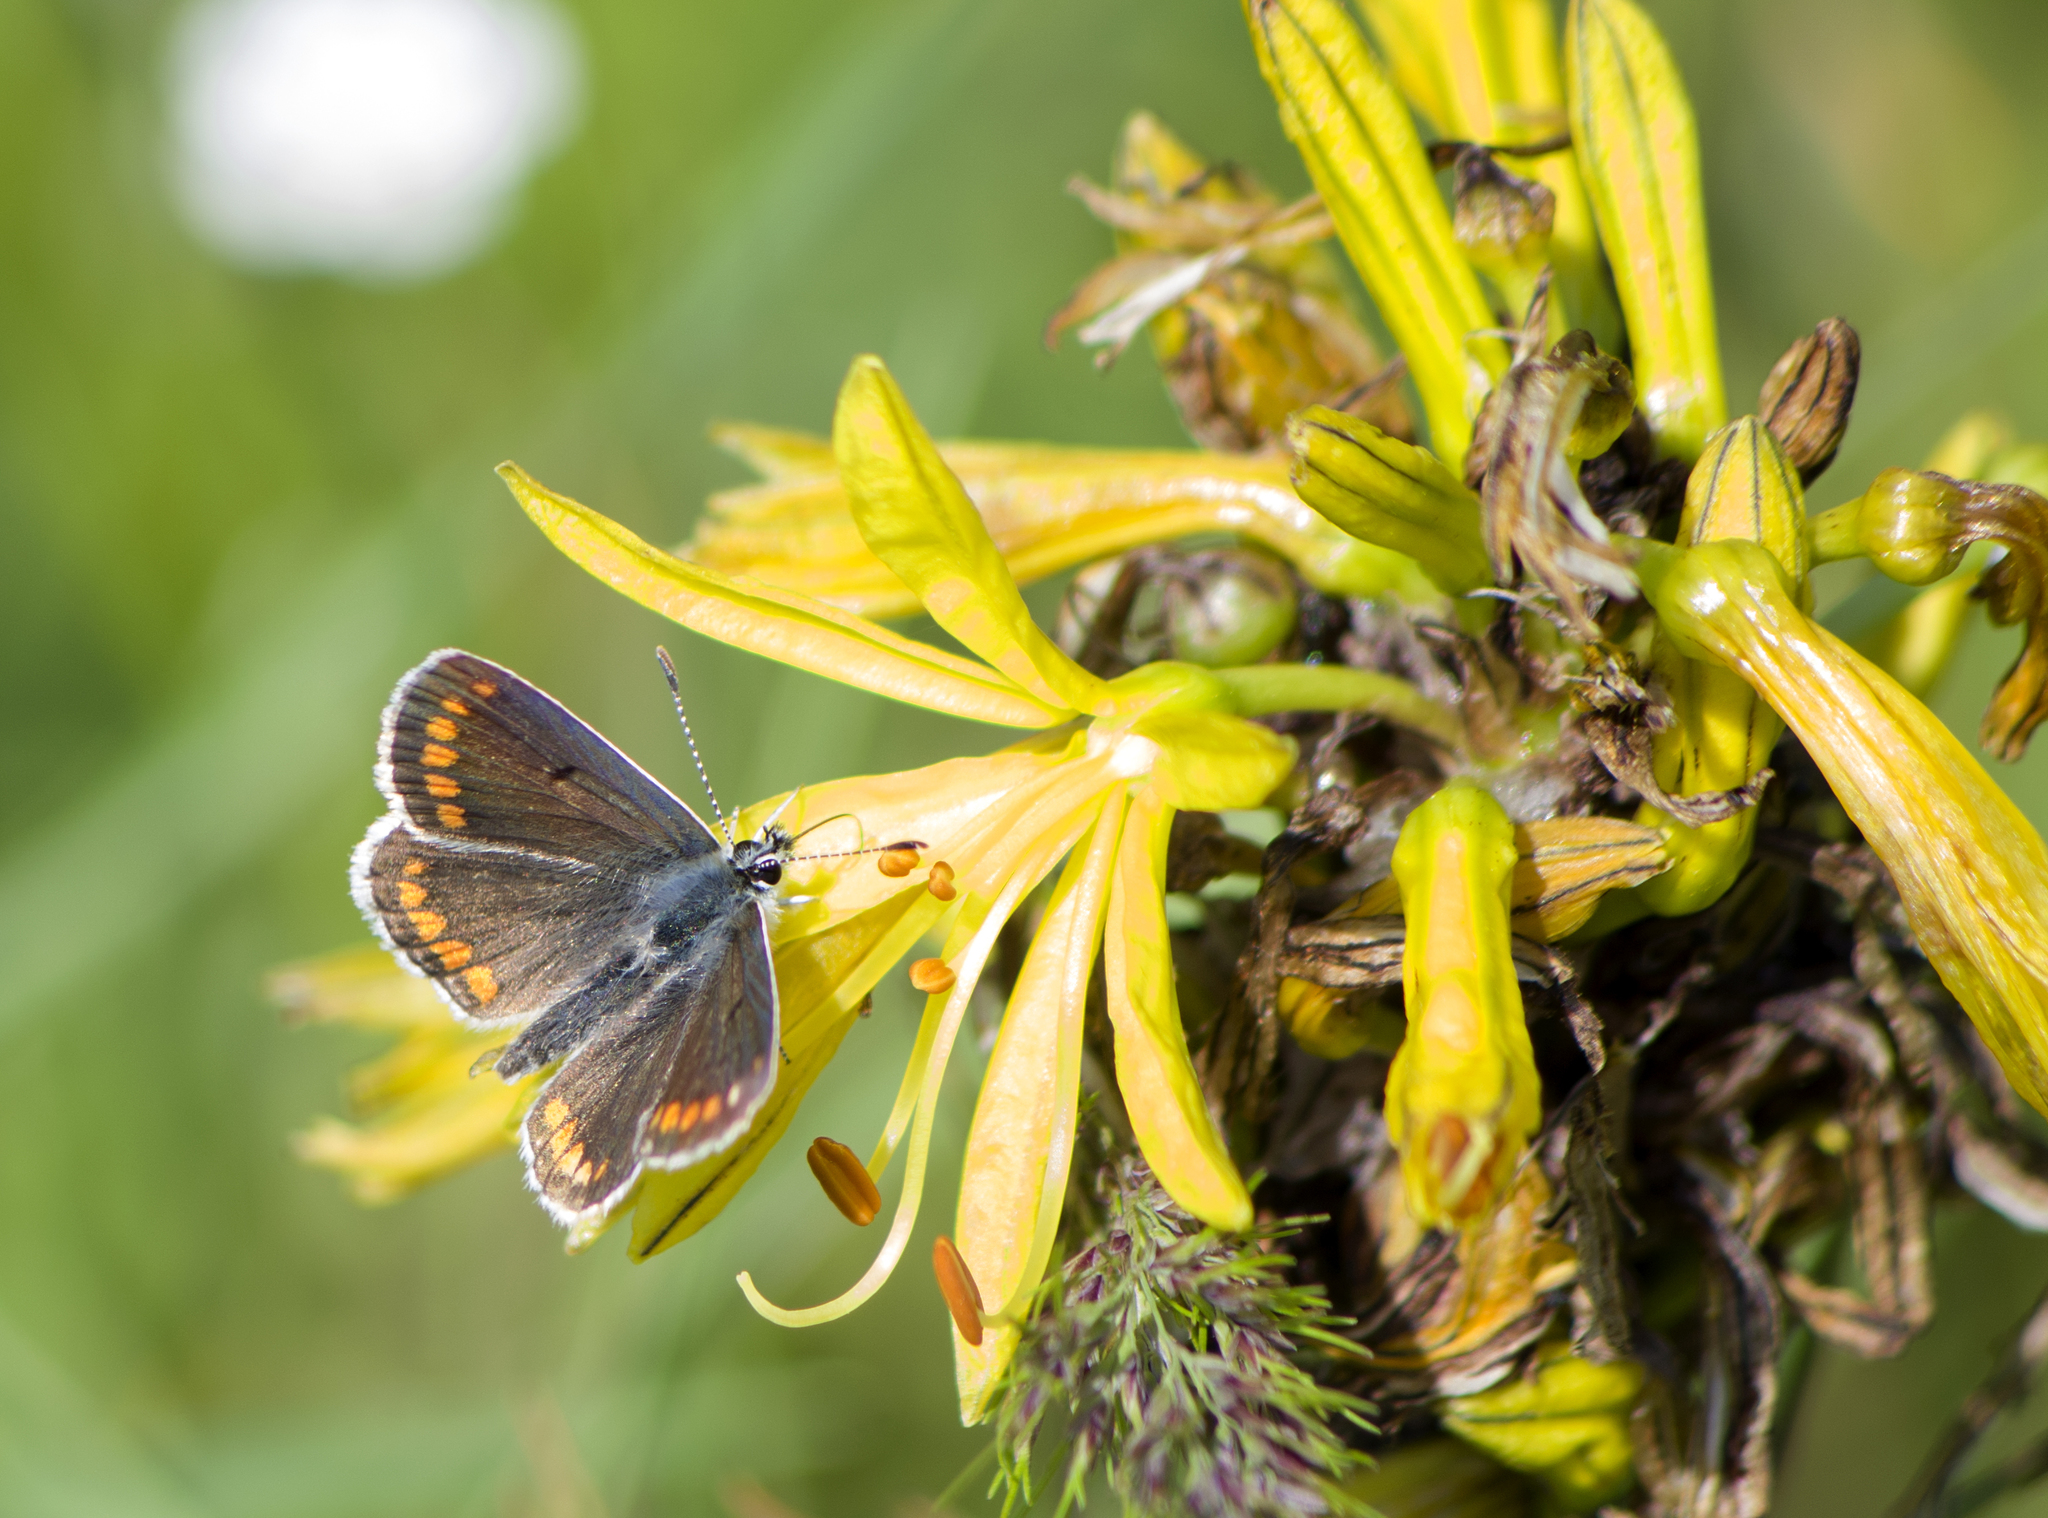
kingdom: Animalia
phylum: Arthropoda
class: Insecta
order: Lepidoptera
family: Lycaenidae
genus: Aricia
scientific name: Aricia agestis
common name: Brown argus
